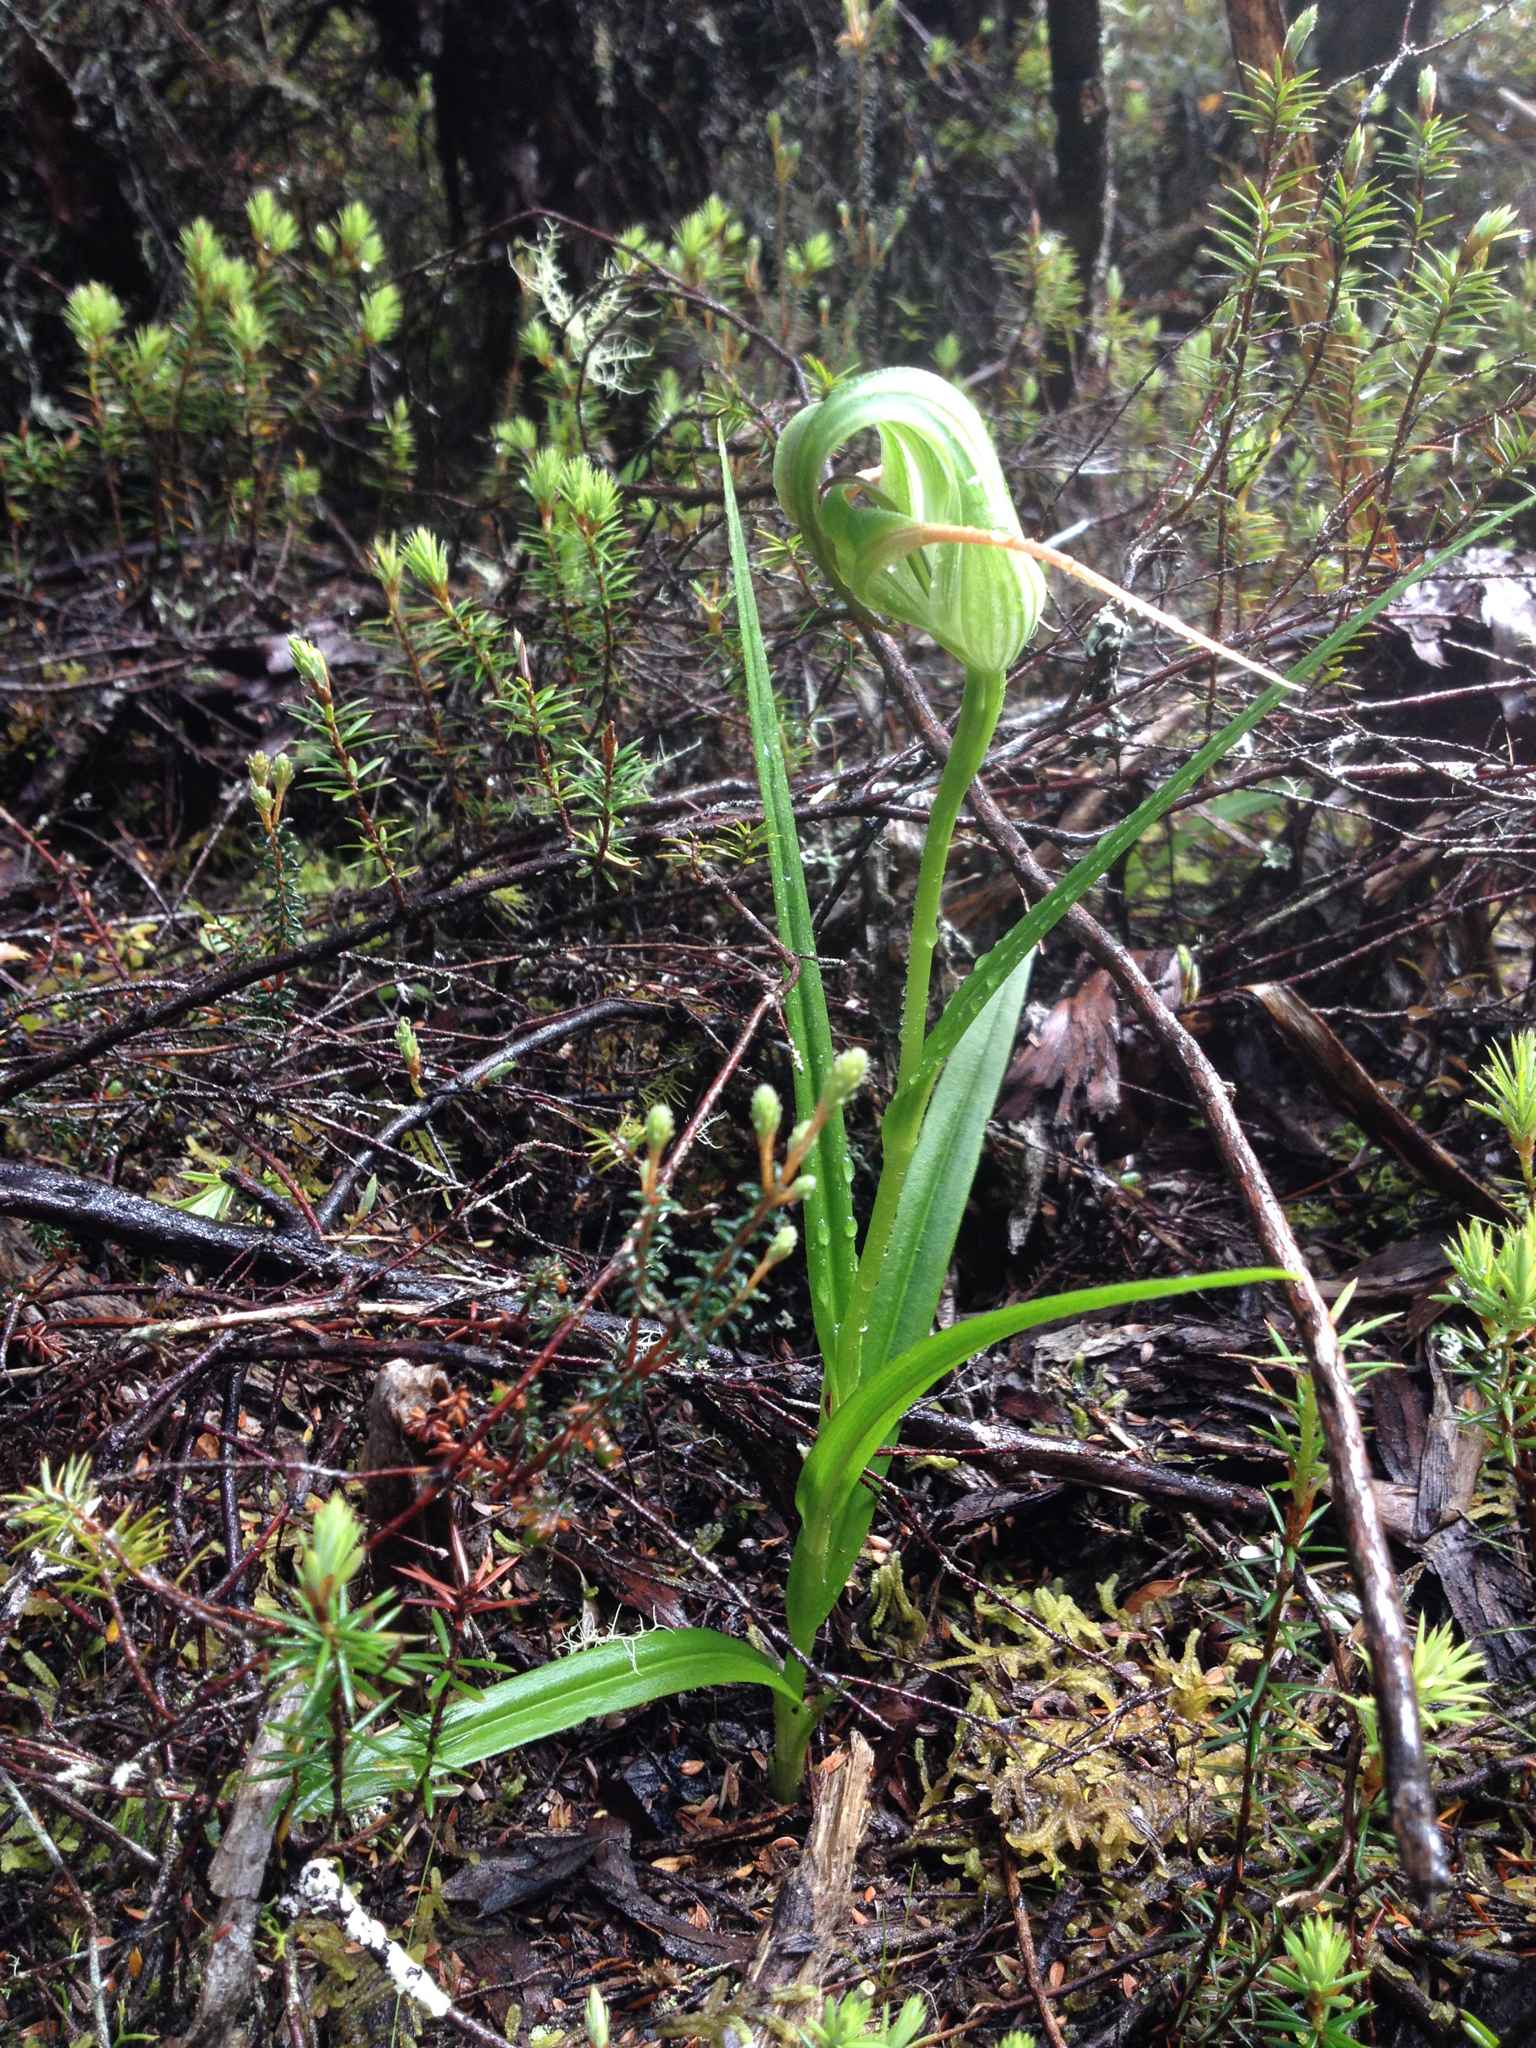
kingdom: Plantae
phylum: Tracheophyta
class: Liliopsida
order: Asparagales
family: Orchidaceae
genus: Pterostylis
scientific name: Pterostylis patens
